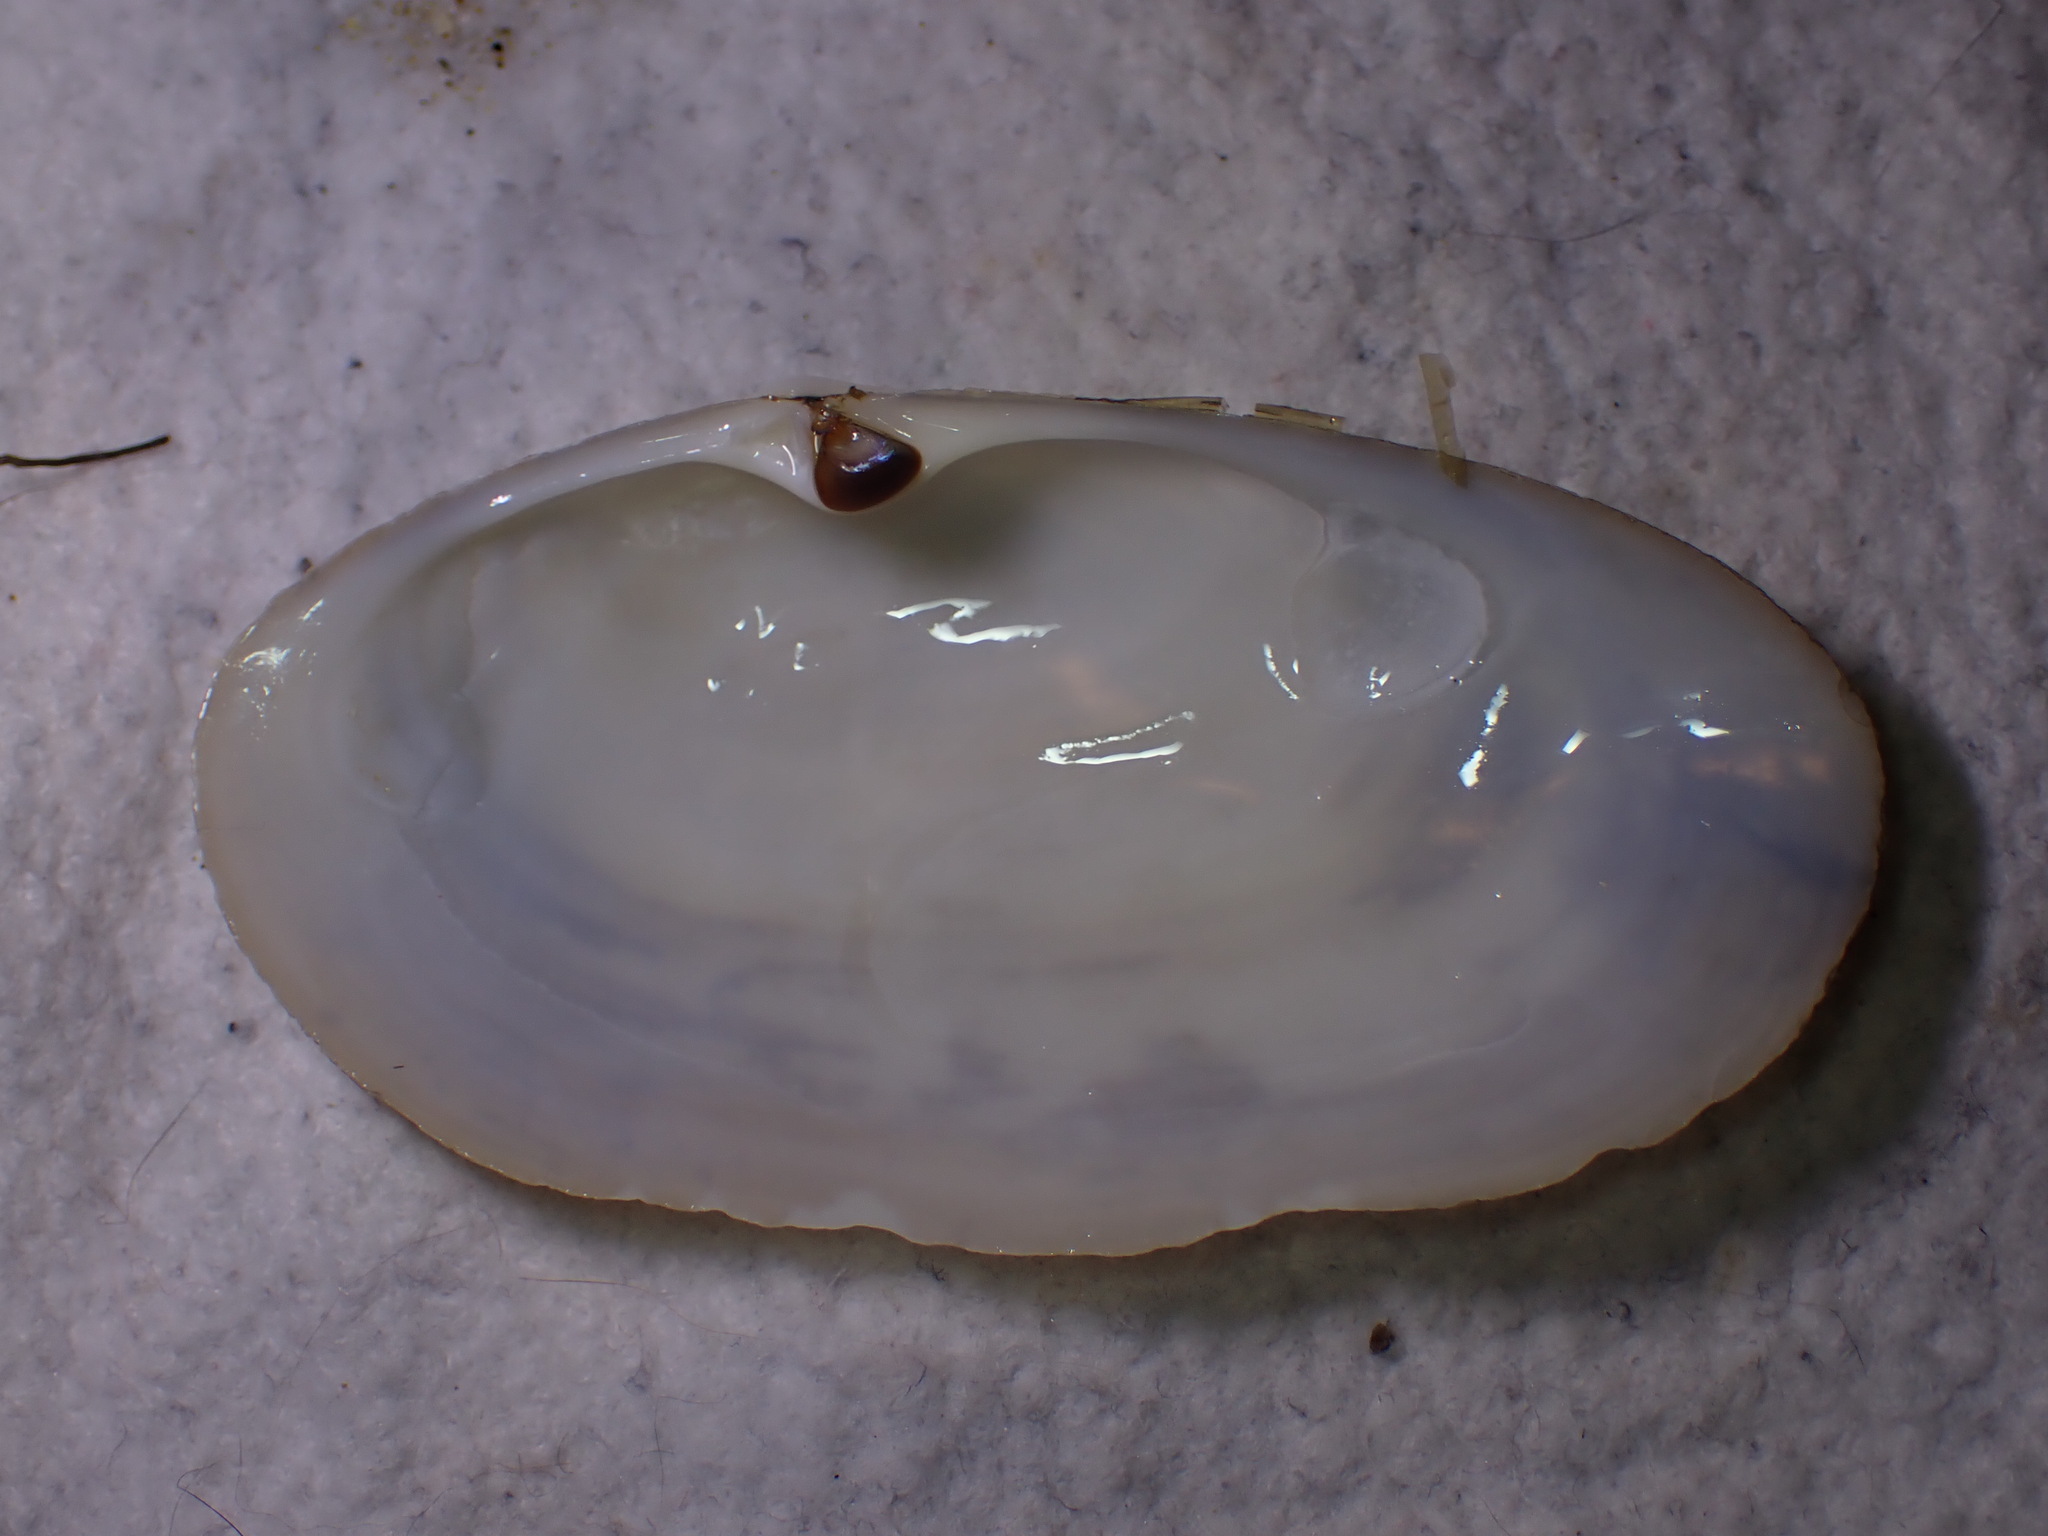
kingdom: Animalia
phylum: Mollusca
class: Bivalvia
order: Venerida
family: Mactridae
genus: Lutraria
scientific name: Lutraria lutraria
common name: Common otter shell
